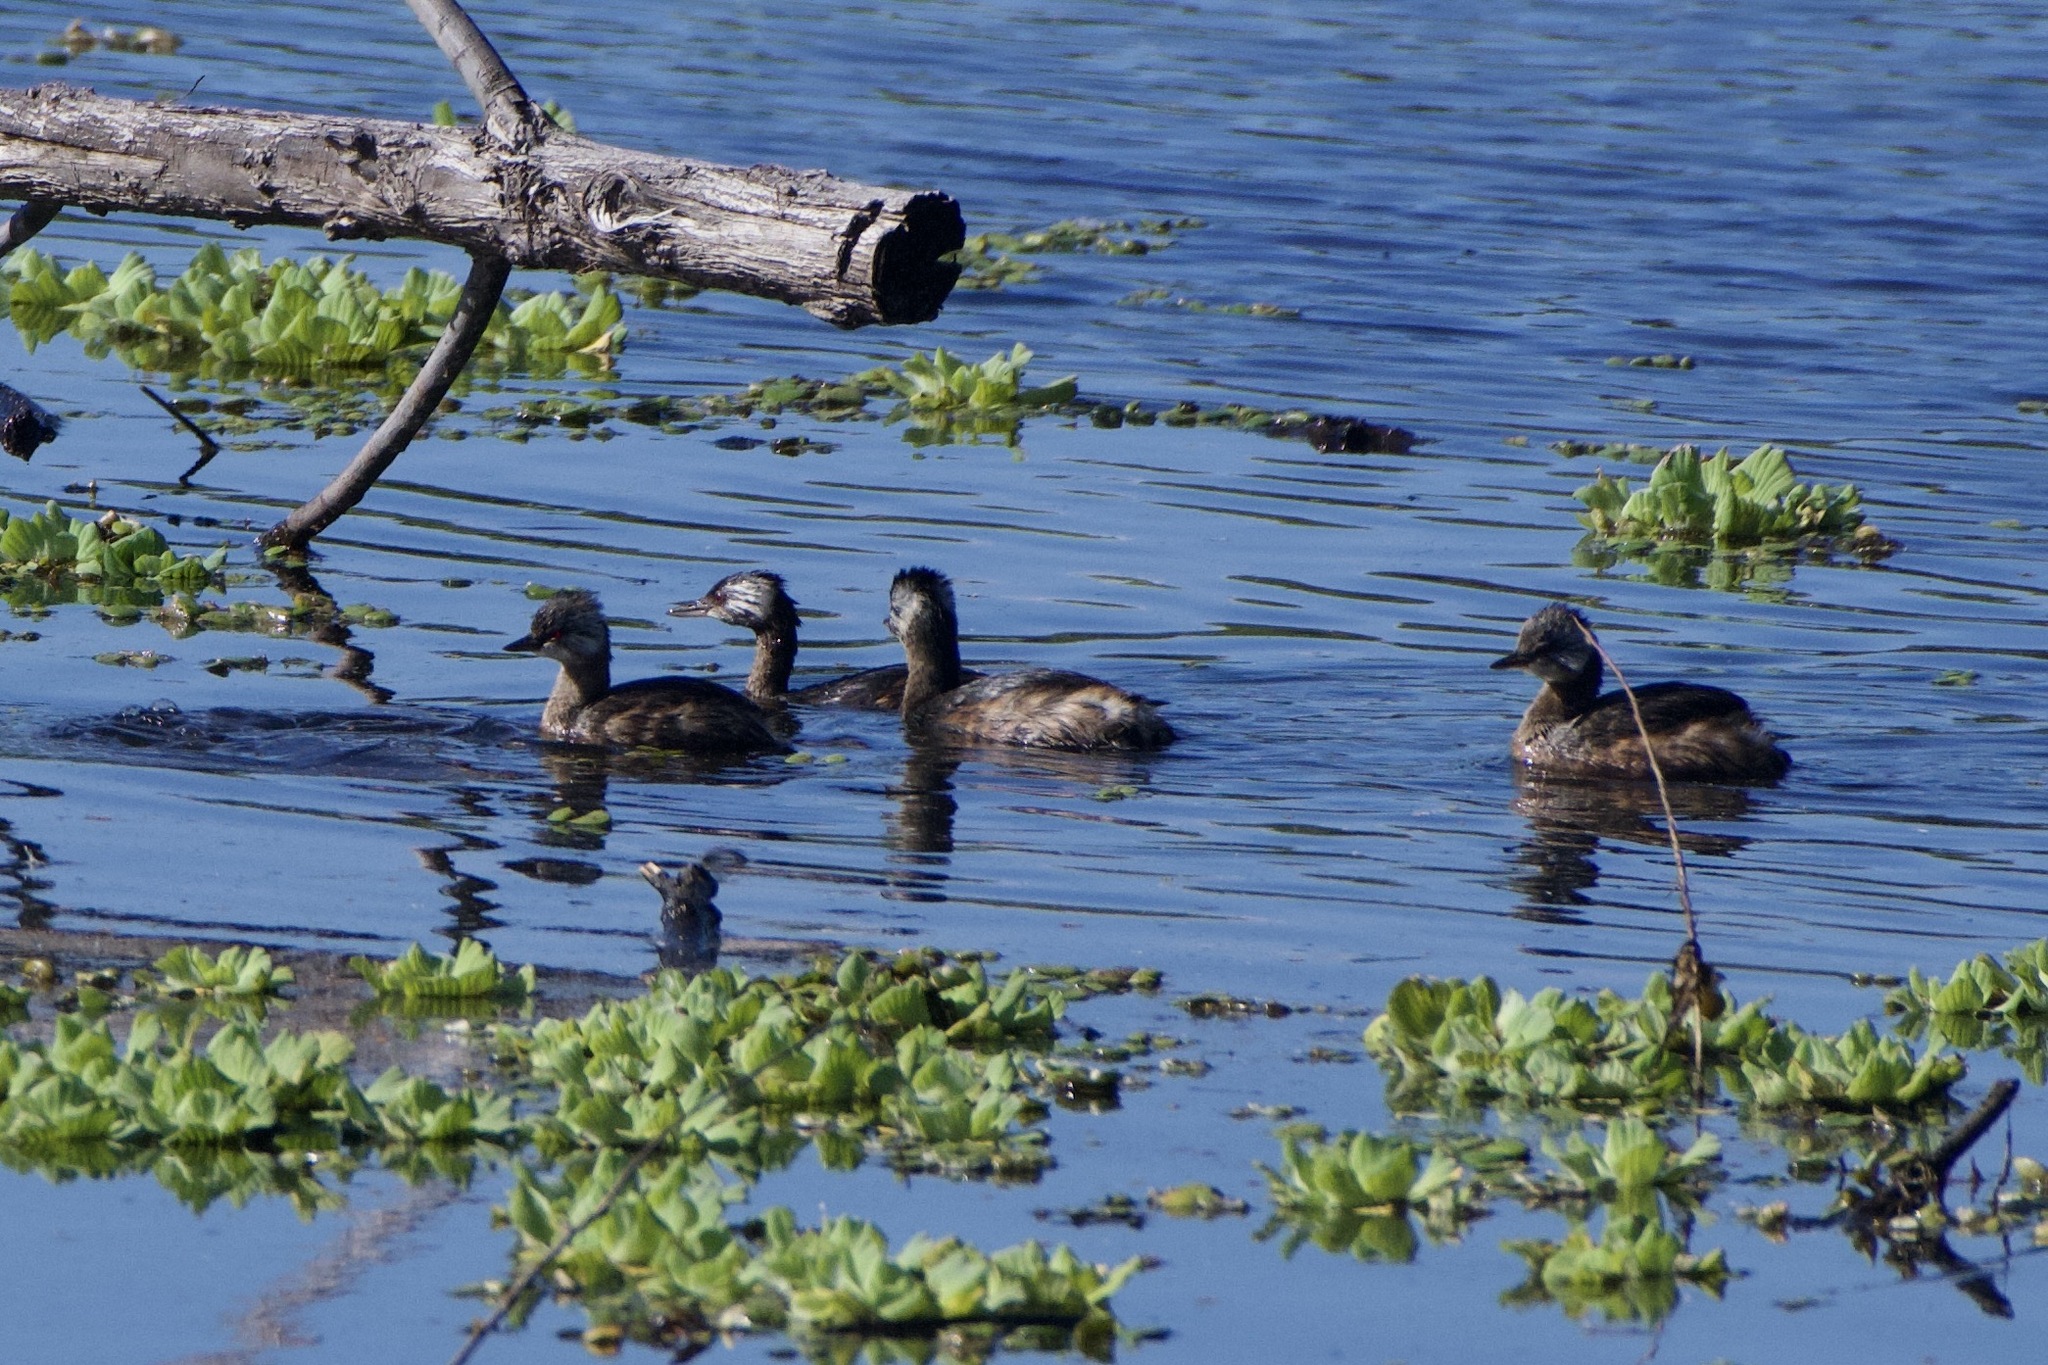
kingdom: Animalia
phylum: Chordata
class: Aves
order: Podicipediformes
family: Podicipedidae
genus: Rollandia
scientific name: Rollandia rolland
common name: White-tufted grebe
